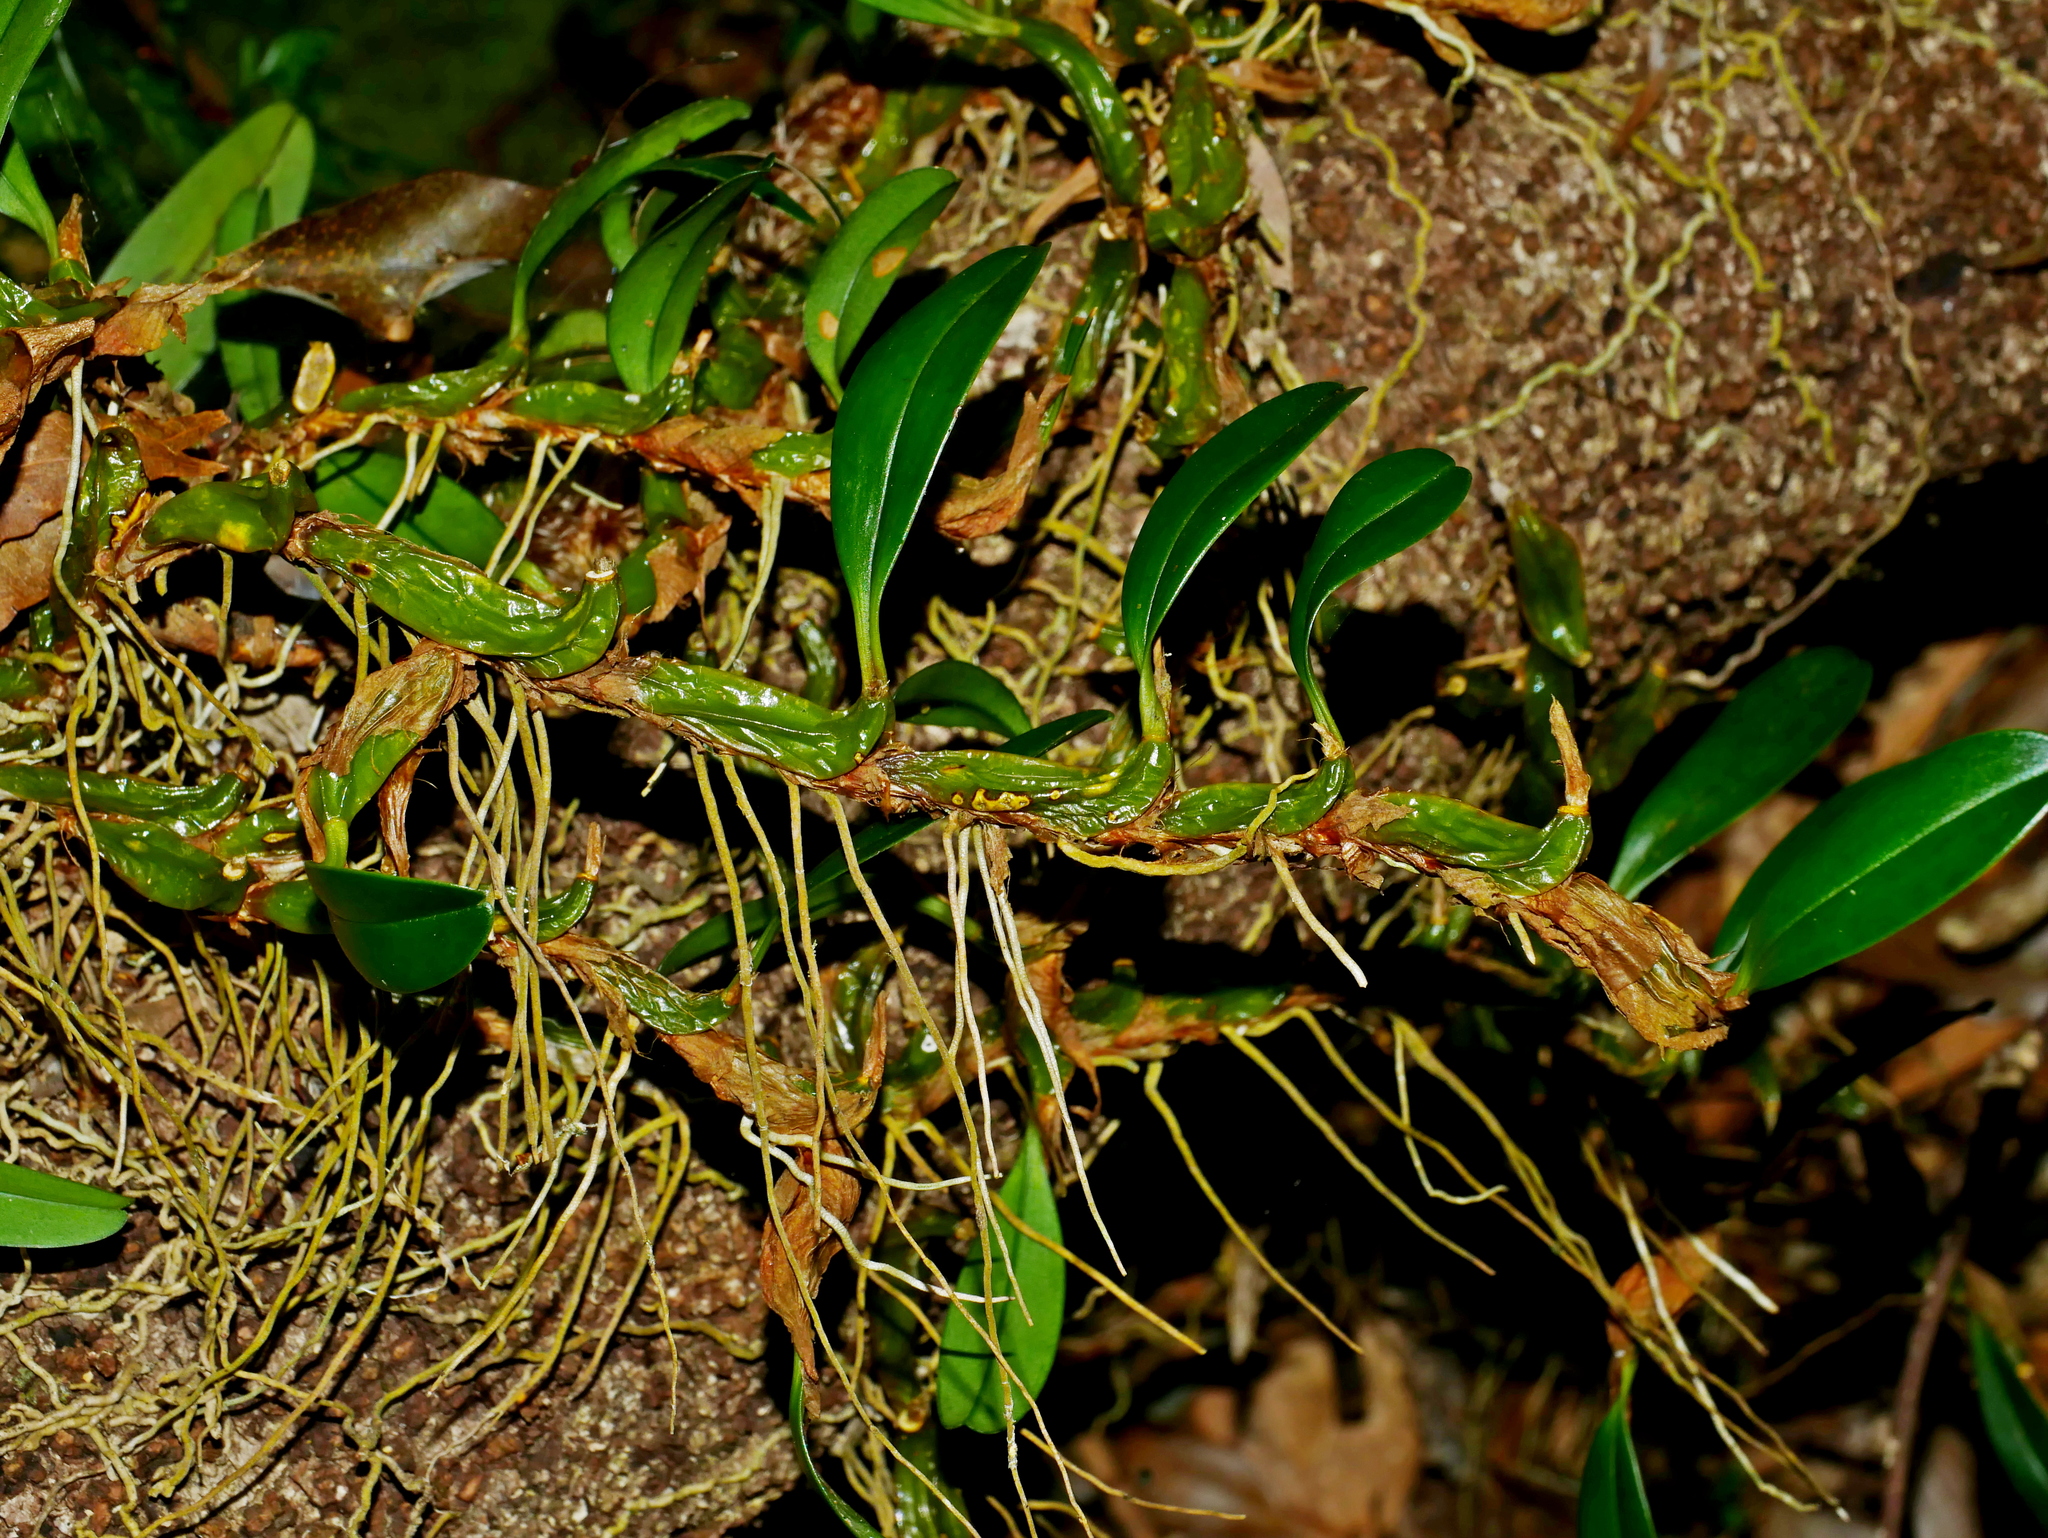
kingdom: Plantae
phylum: Tracheophyta
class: Liliopsida
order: Asparagales
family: Orchidaceae
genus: Dendrobium
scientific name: Dendrobium nakaharae
